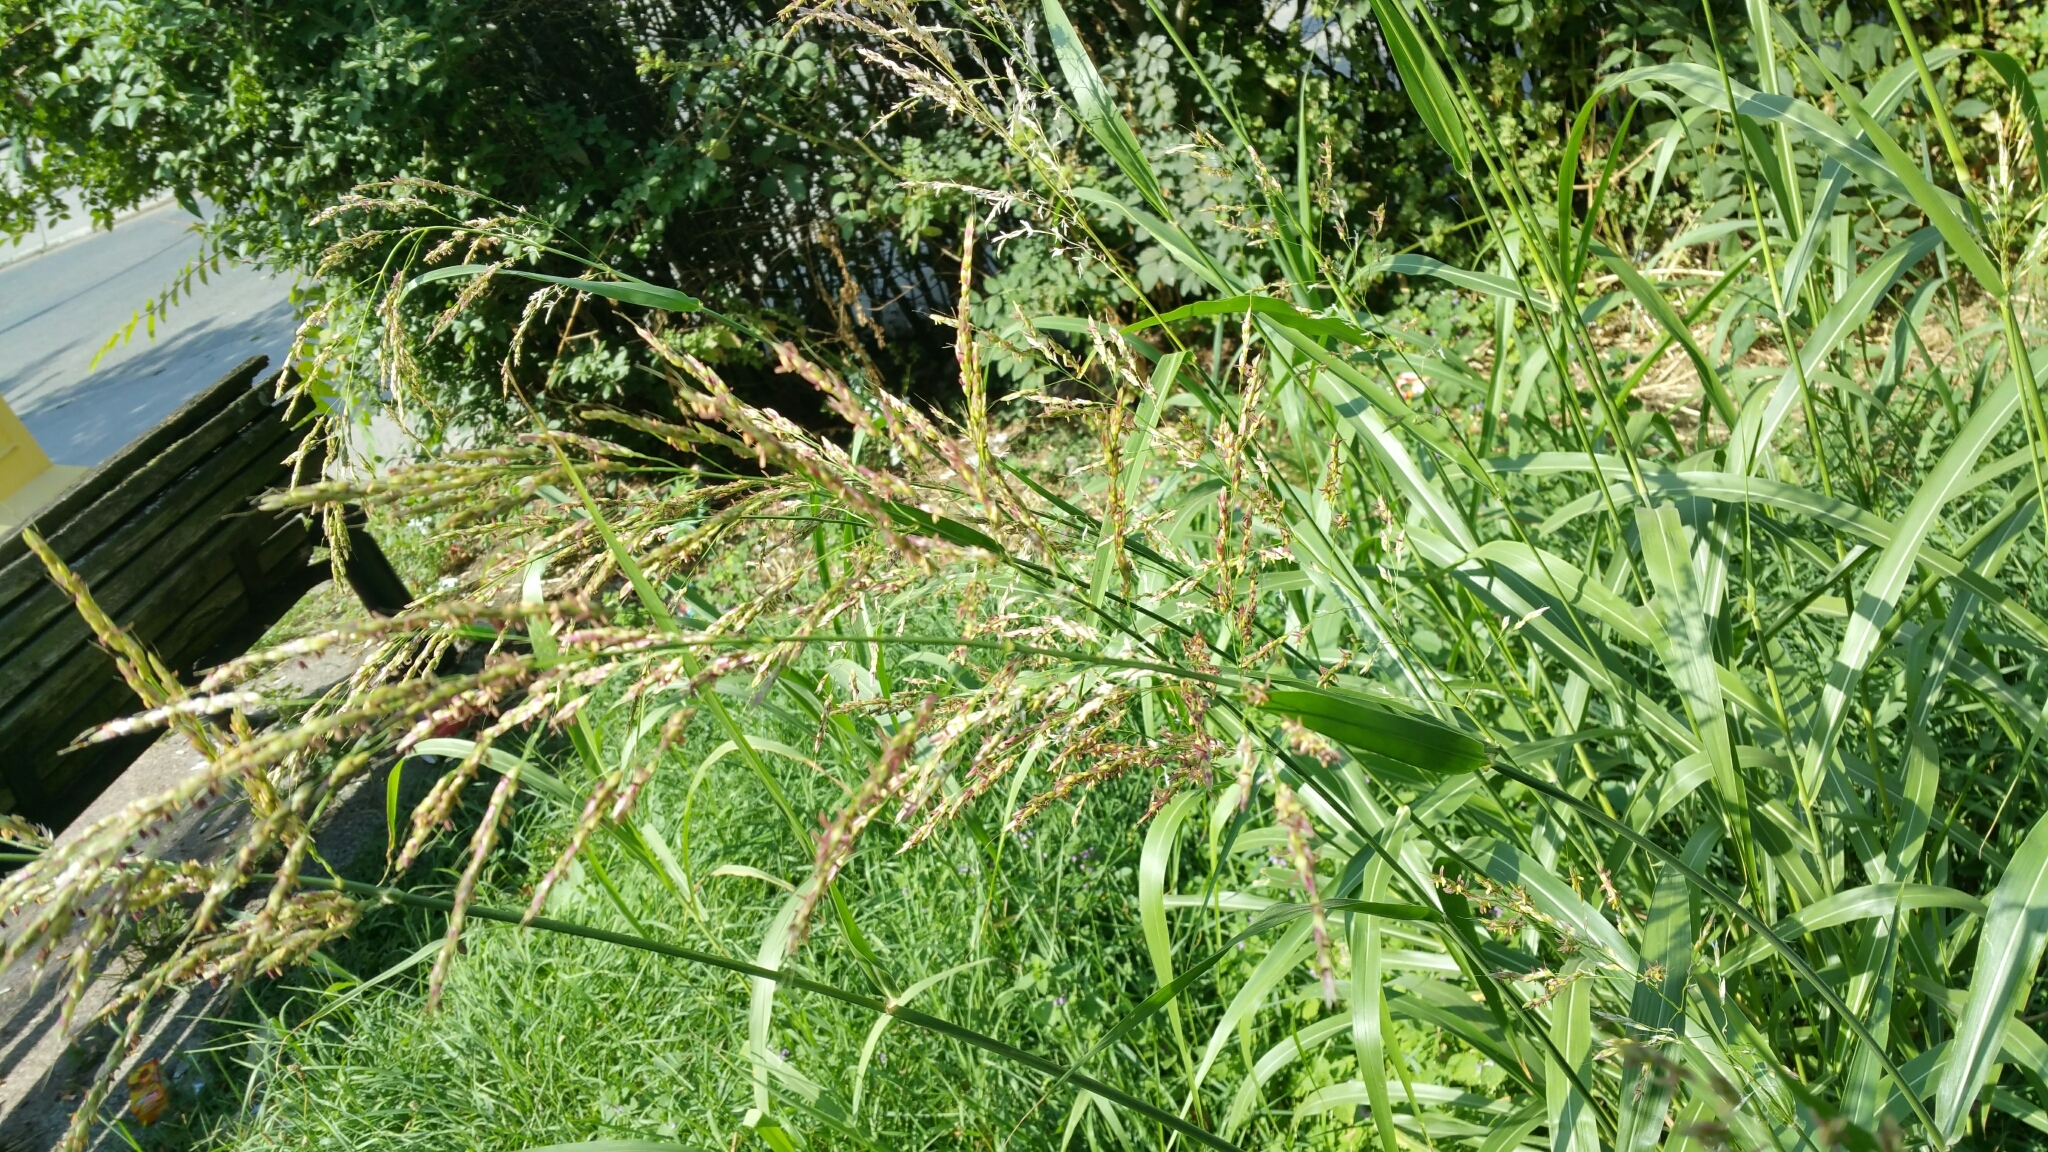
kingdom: Plantae
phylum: Tracheophyta
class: Liliopsida
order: Poales
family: Poaceae
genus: Sorghum
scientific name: Sorghum halepense
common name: Johnson-grass
